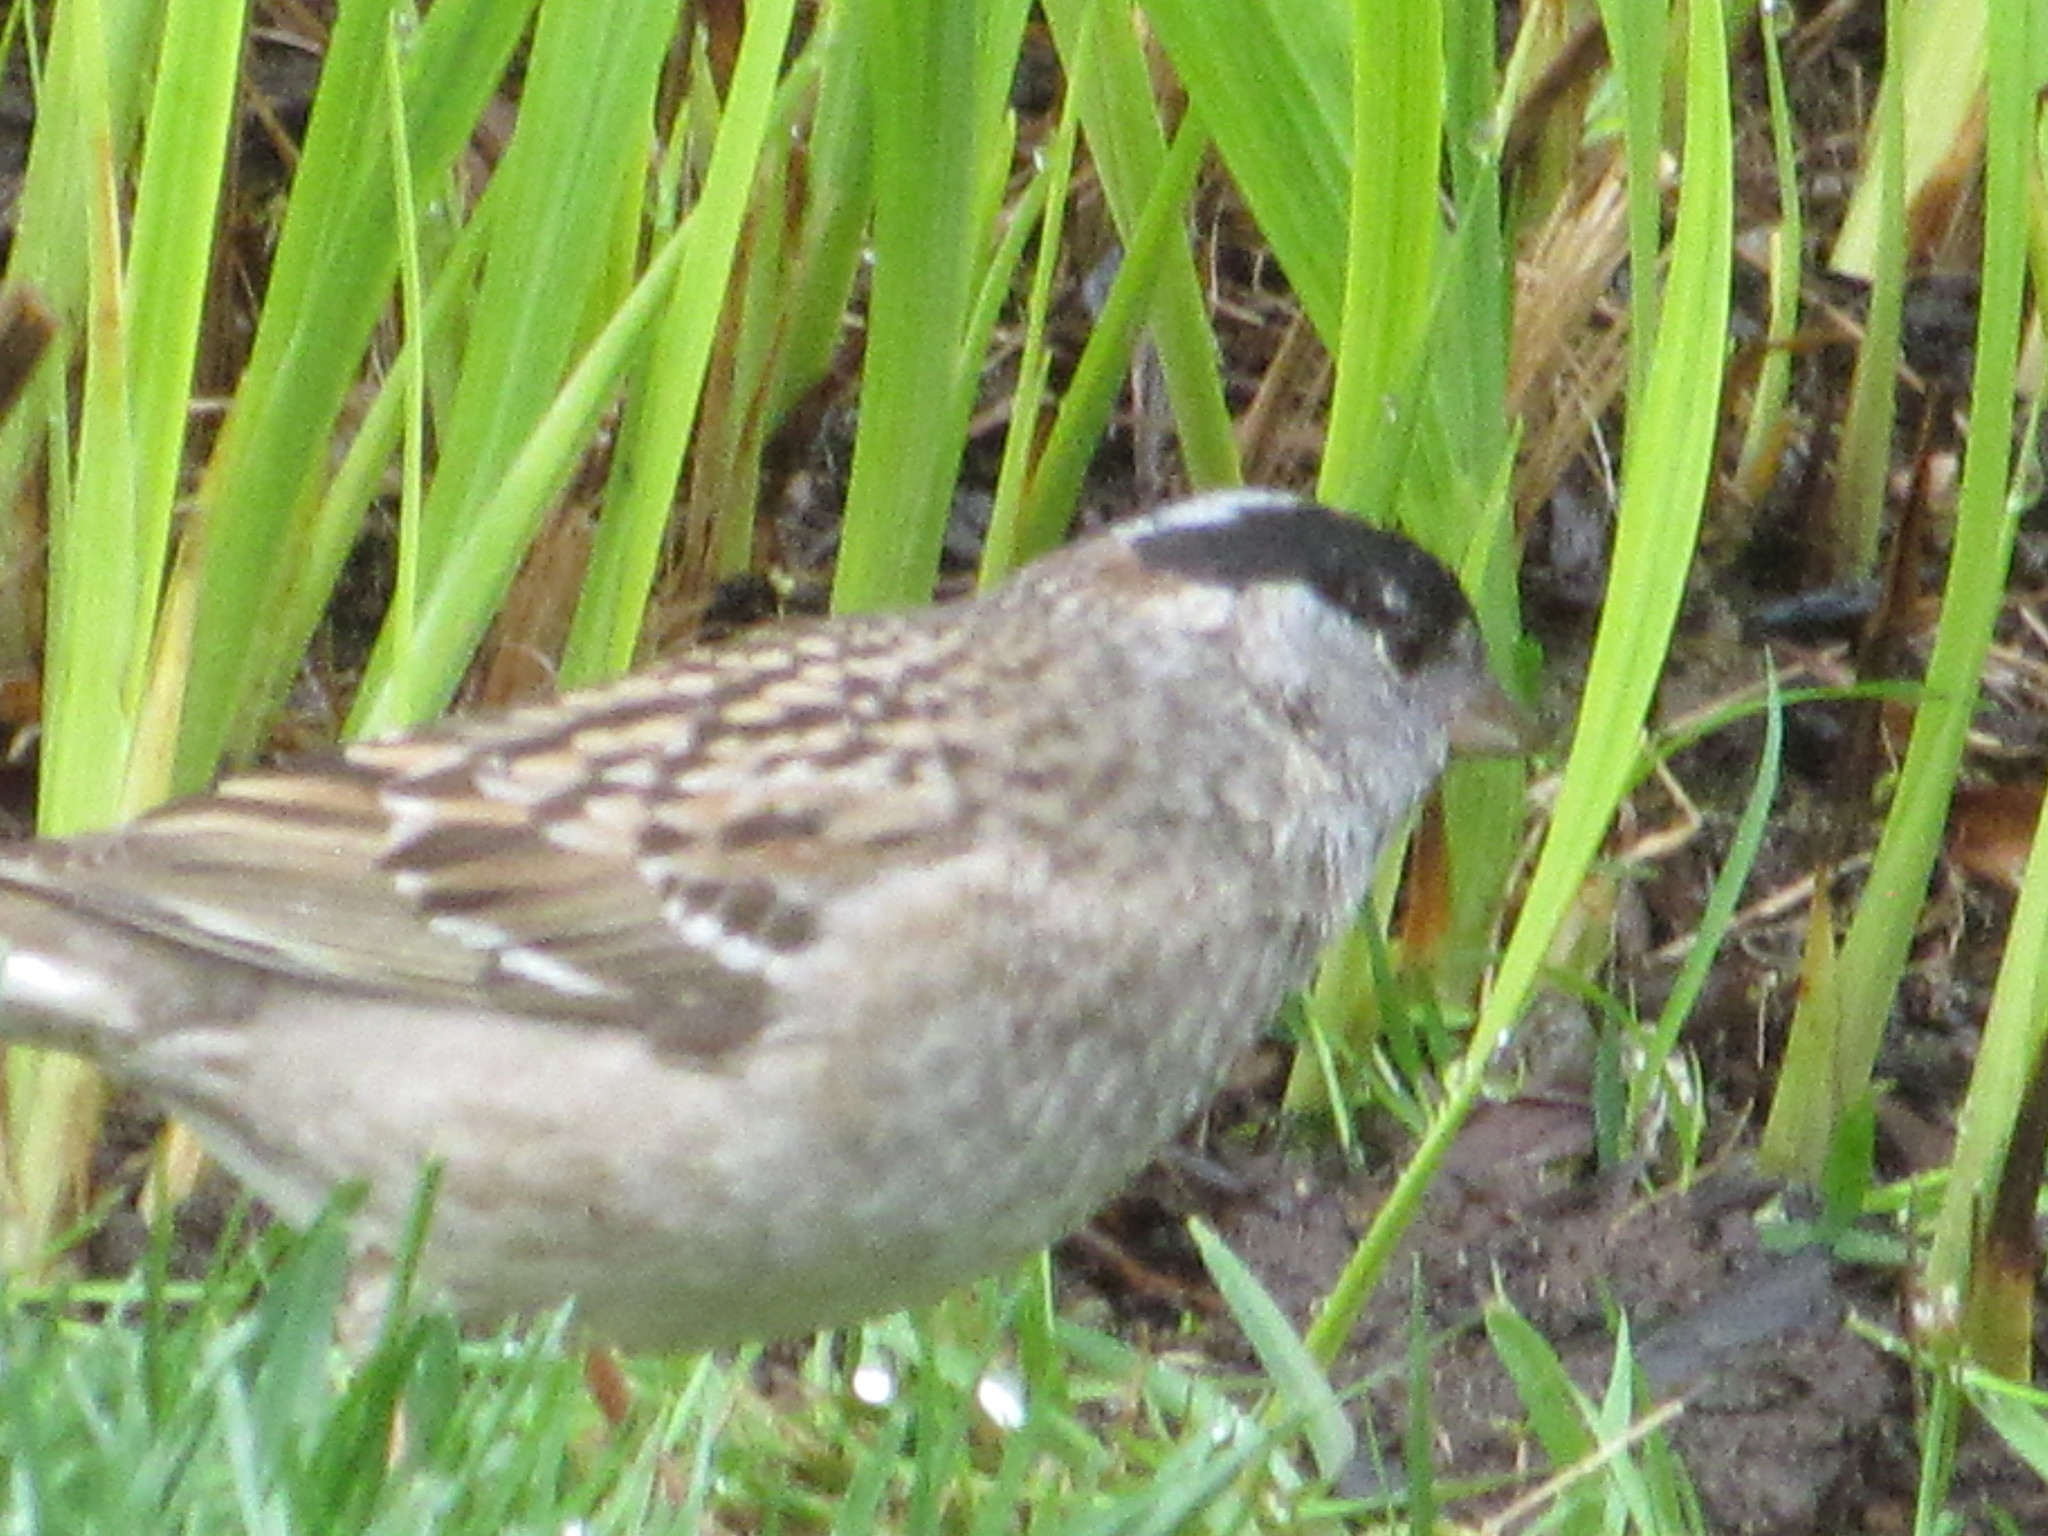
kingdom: Animalia
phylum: Chordata
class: Aves
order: Passeriformes
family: Passerellidae
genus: Zonotrichia
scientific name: Zonotrichia atricapilla
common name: Golden-crowned sparrow
